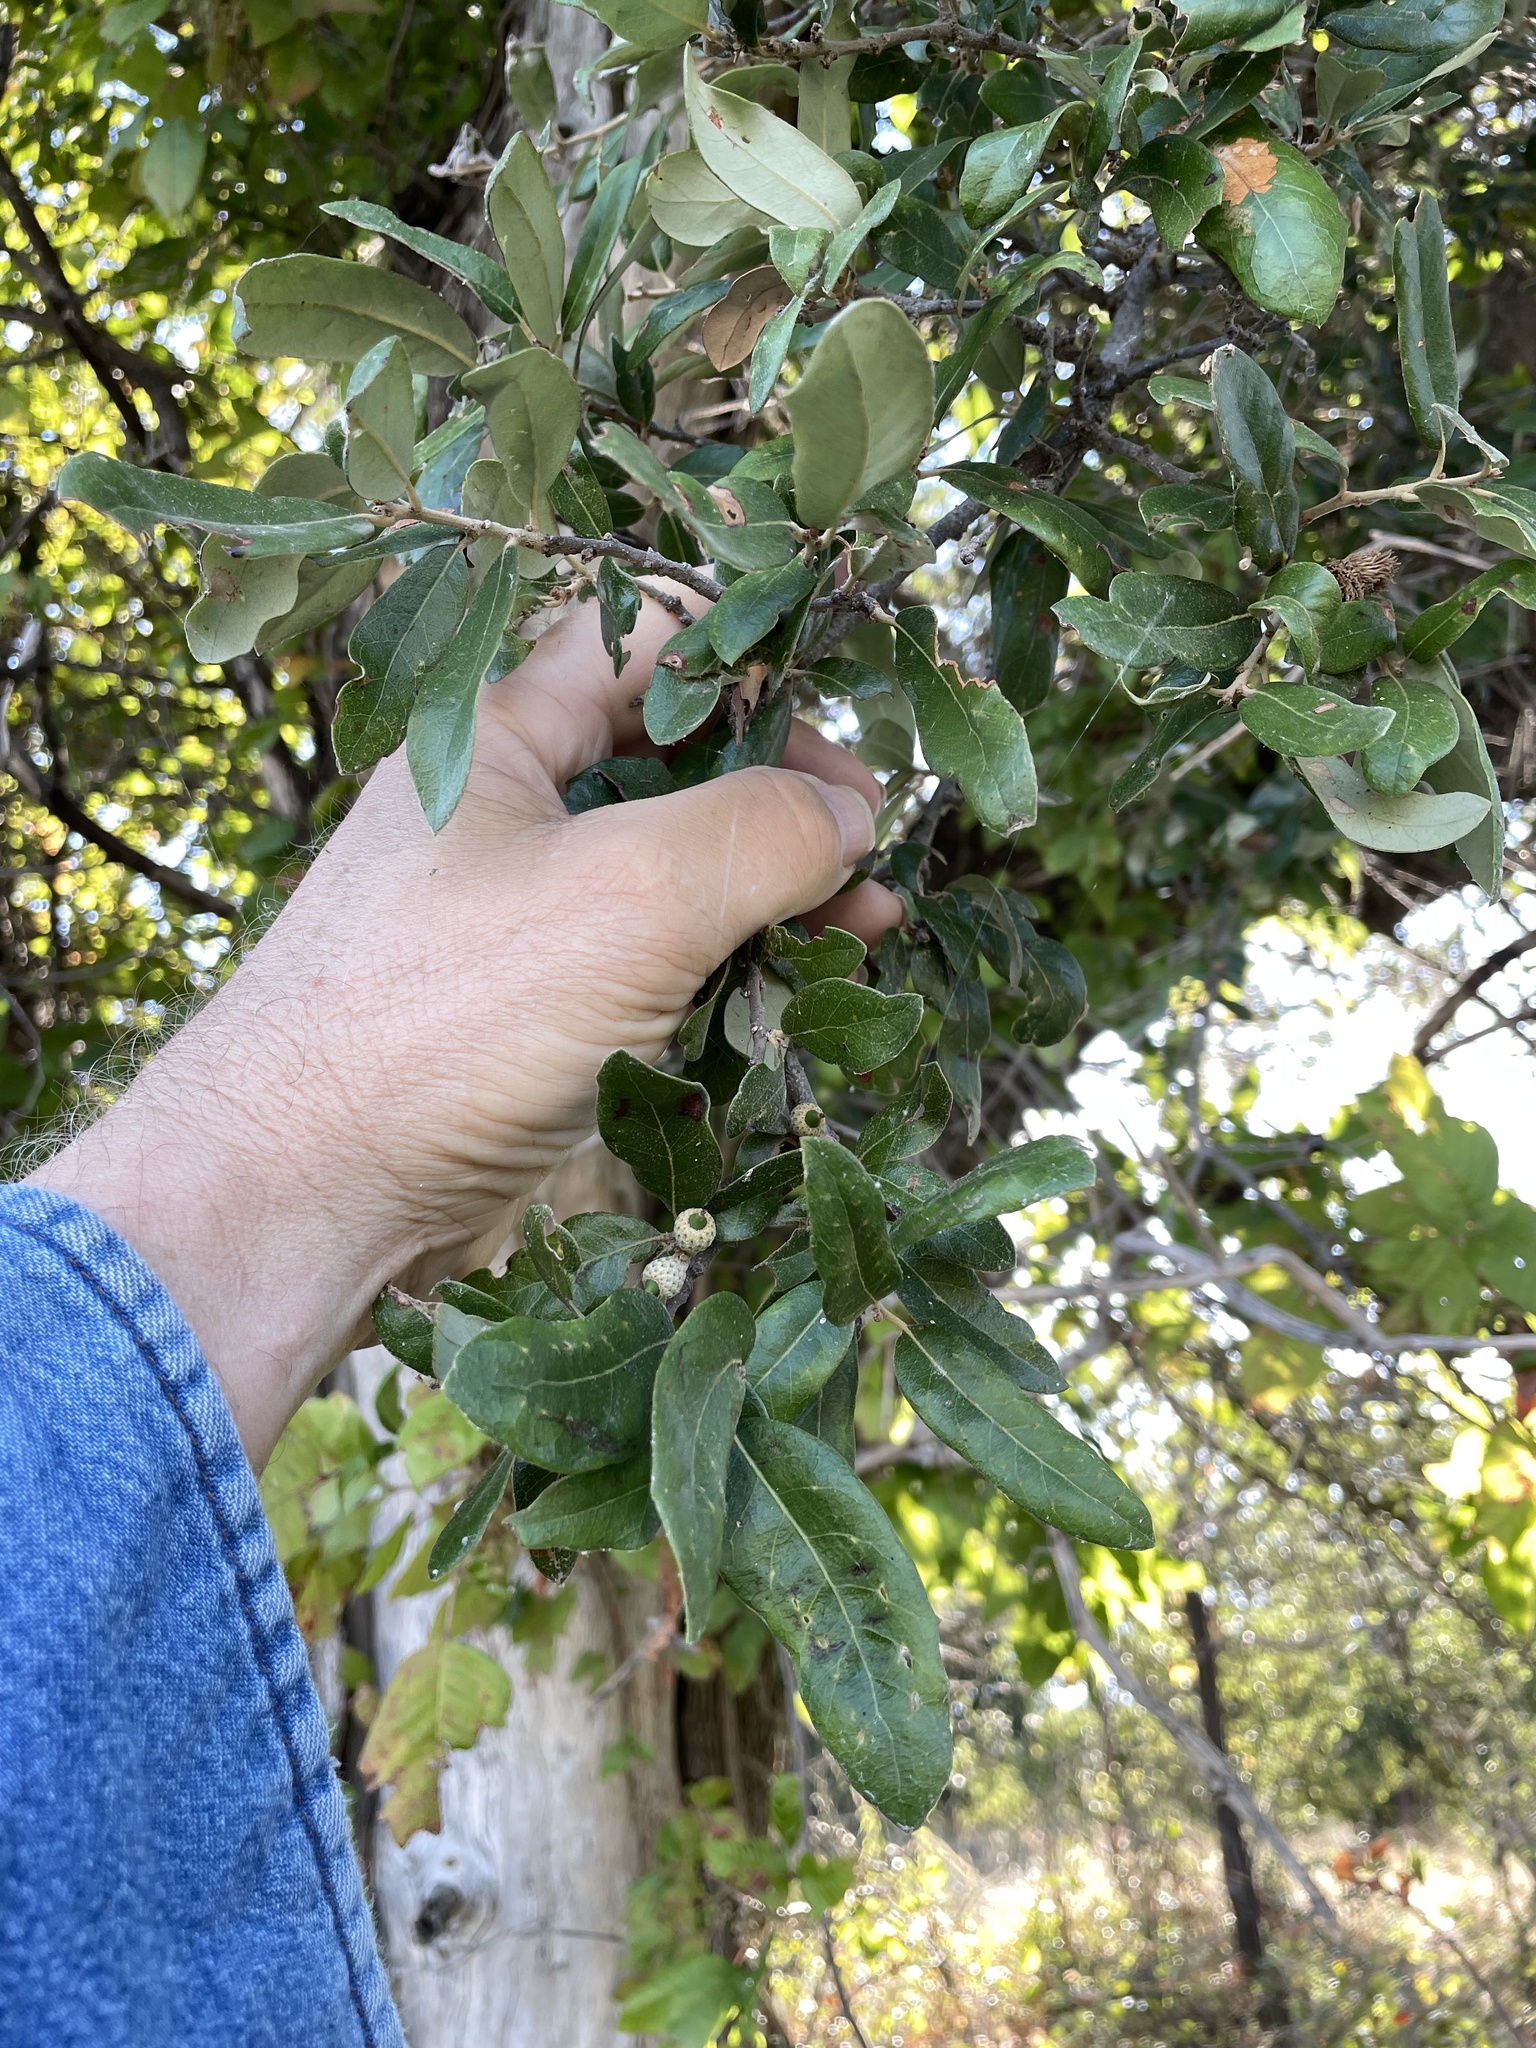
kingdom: Plantae
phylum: Tracheophyta
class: Magnoliopsida
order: Fagales
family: Fagaceae
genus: Quercus
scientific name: Quercus fusiformis
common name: Texas live oak
